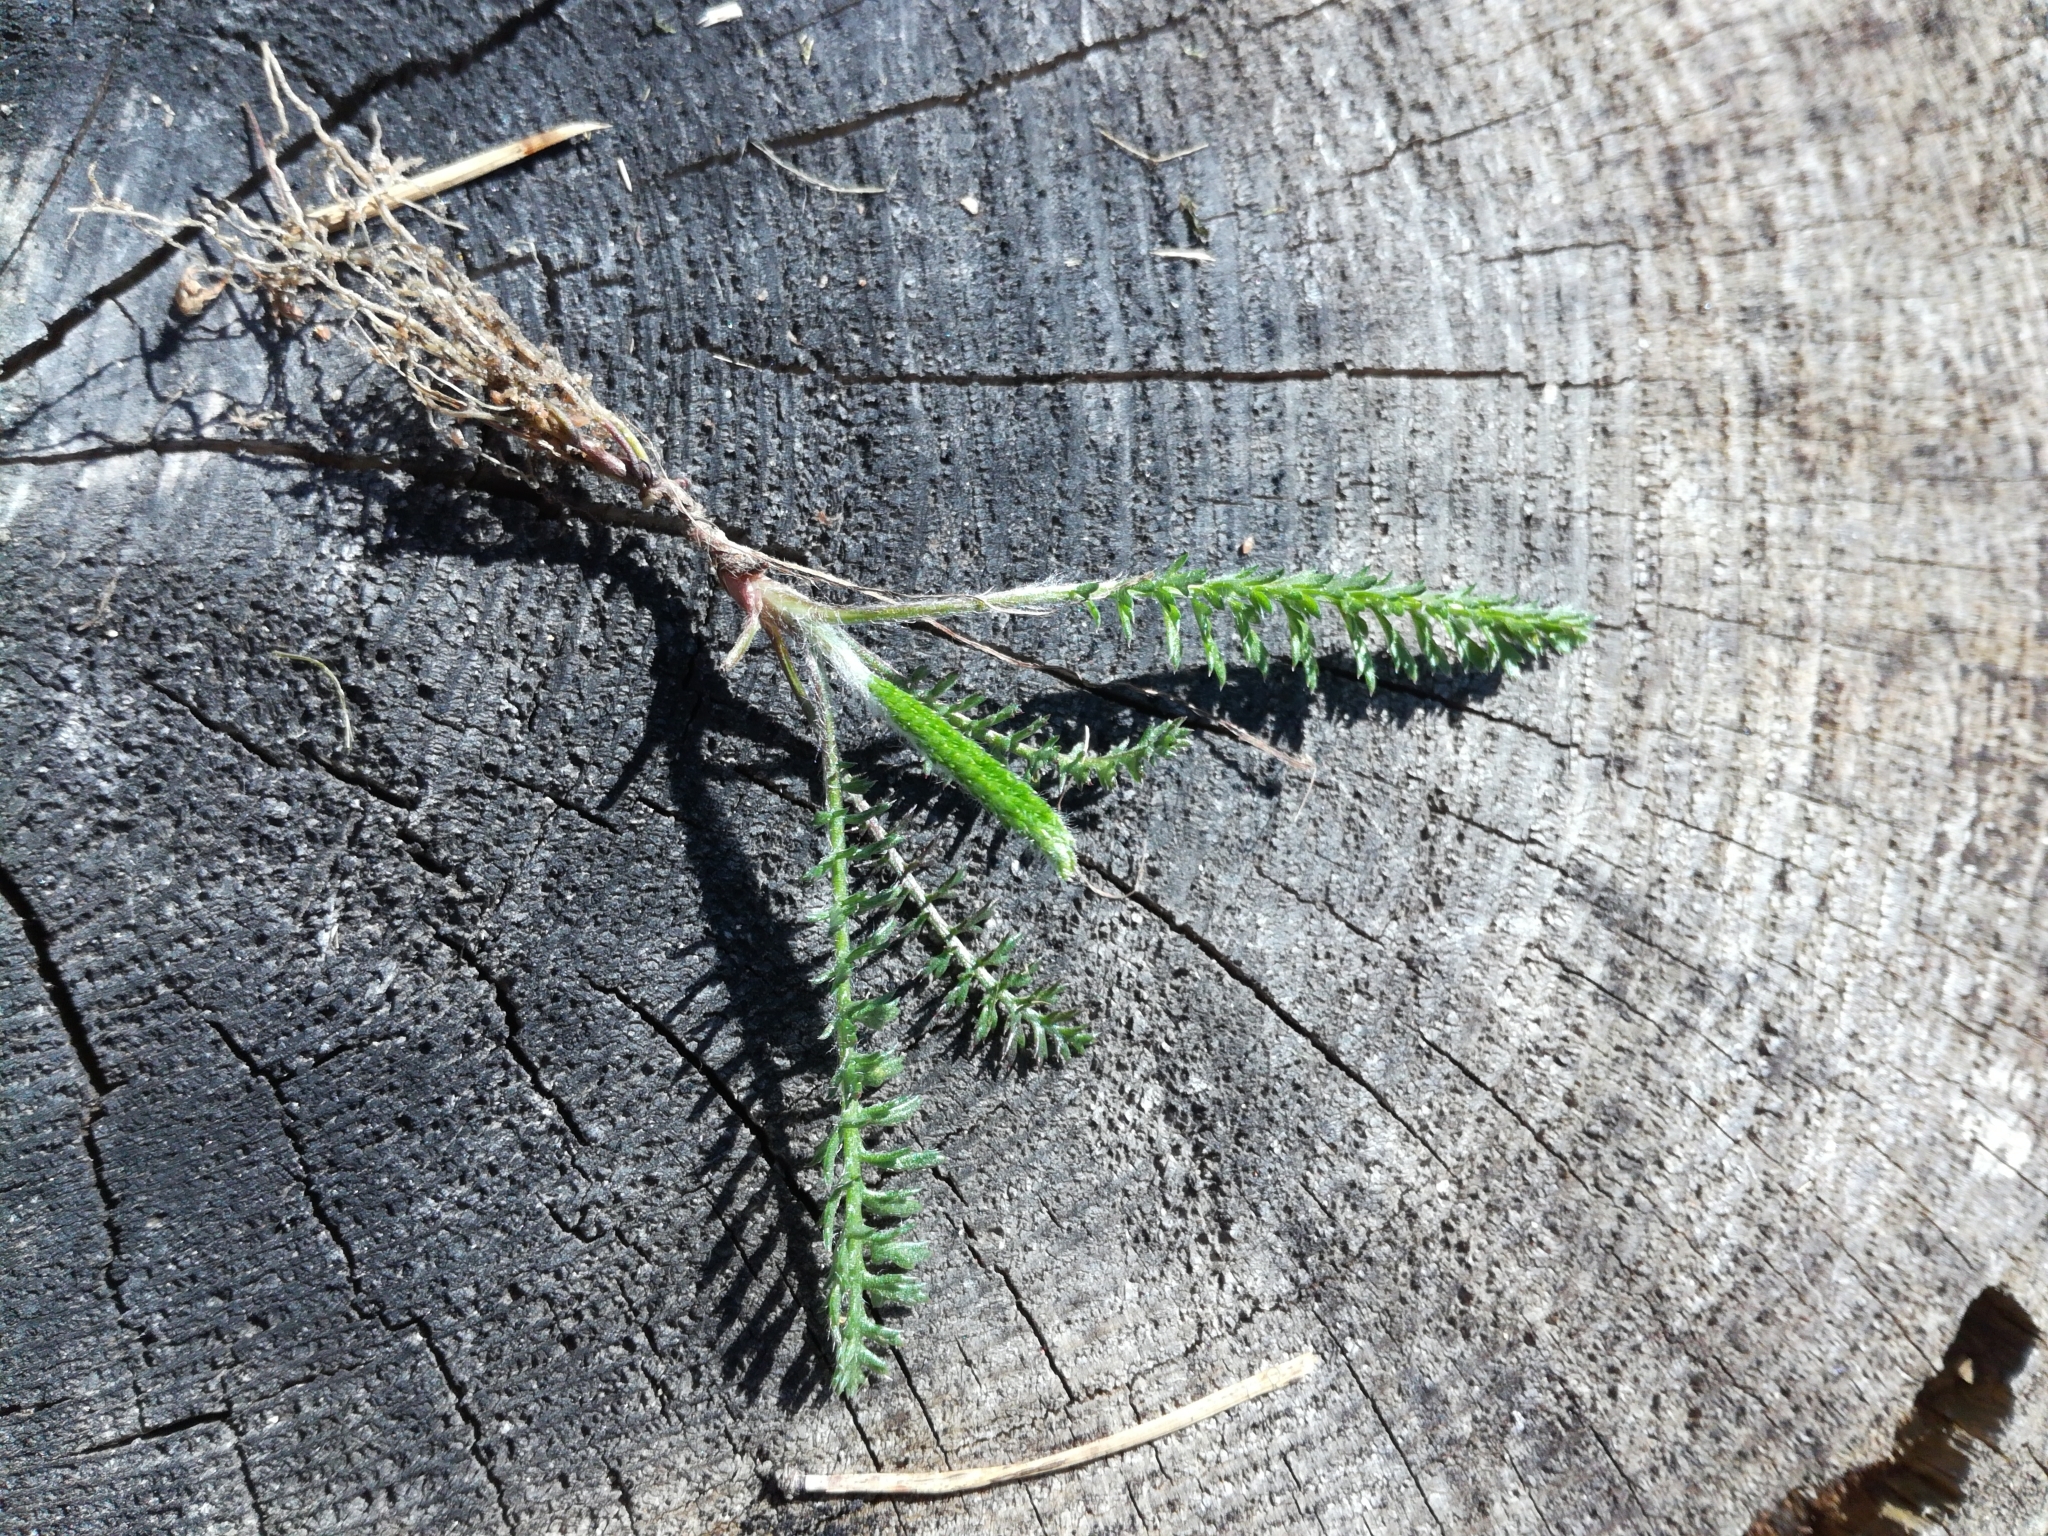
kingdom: Plantae
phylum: Tracheophyta
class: Magnoliopsida
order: Asterales
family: Asteraceae
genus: Achillea
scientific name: Achillea millefolium
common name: Yarrow
